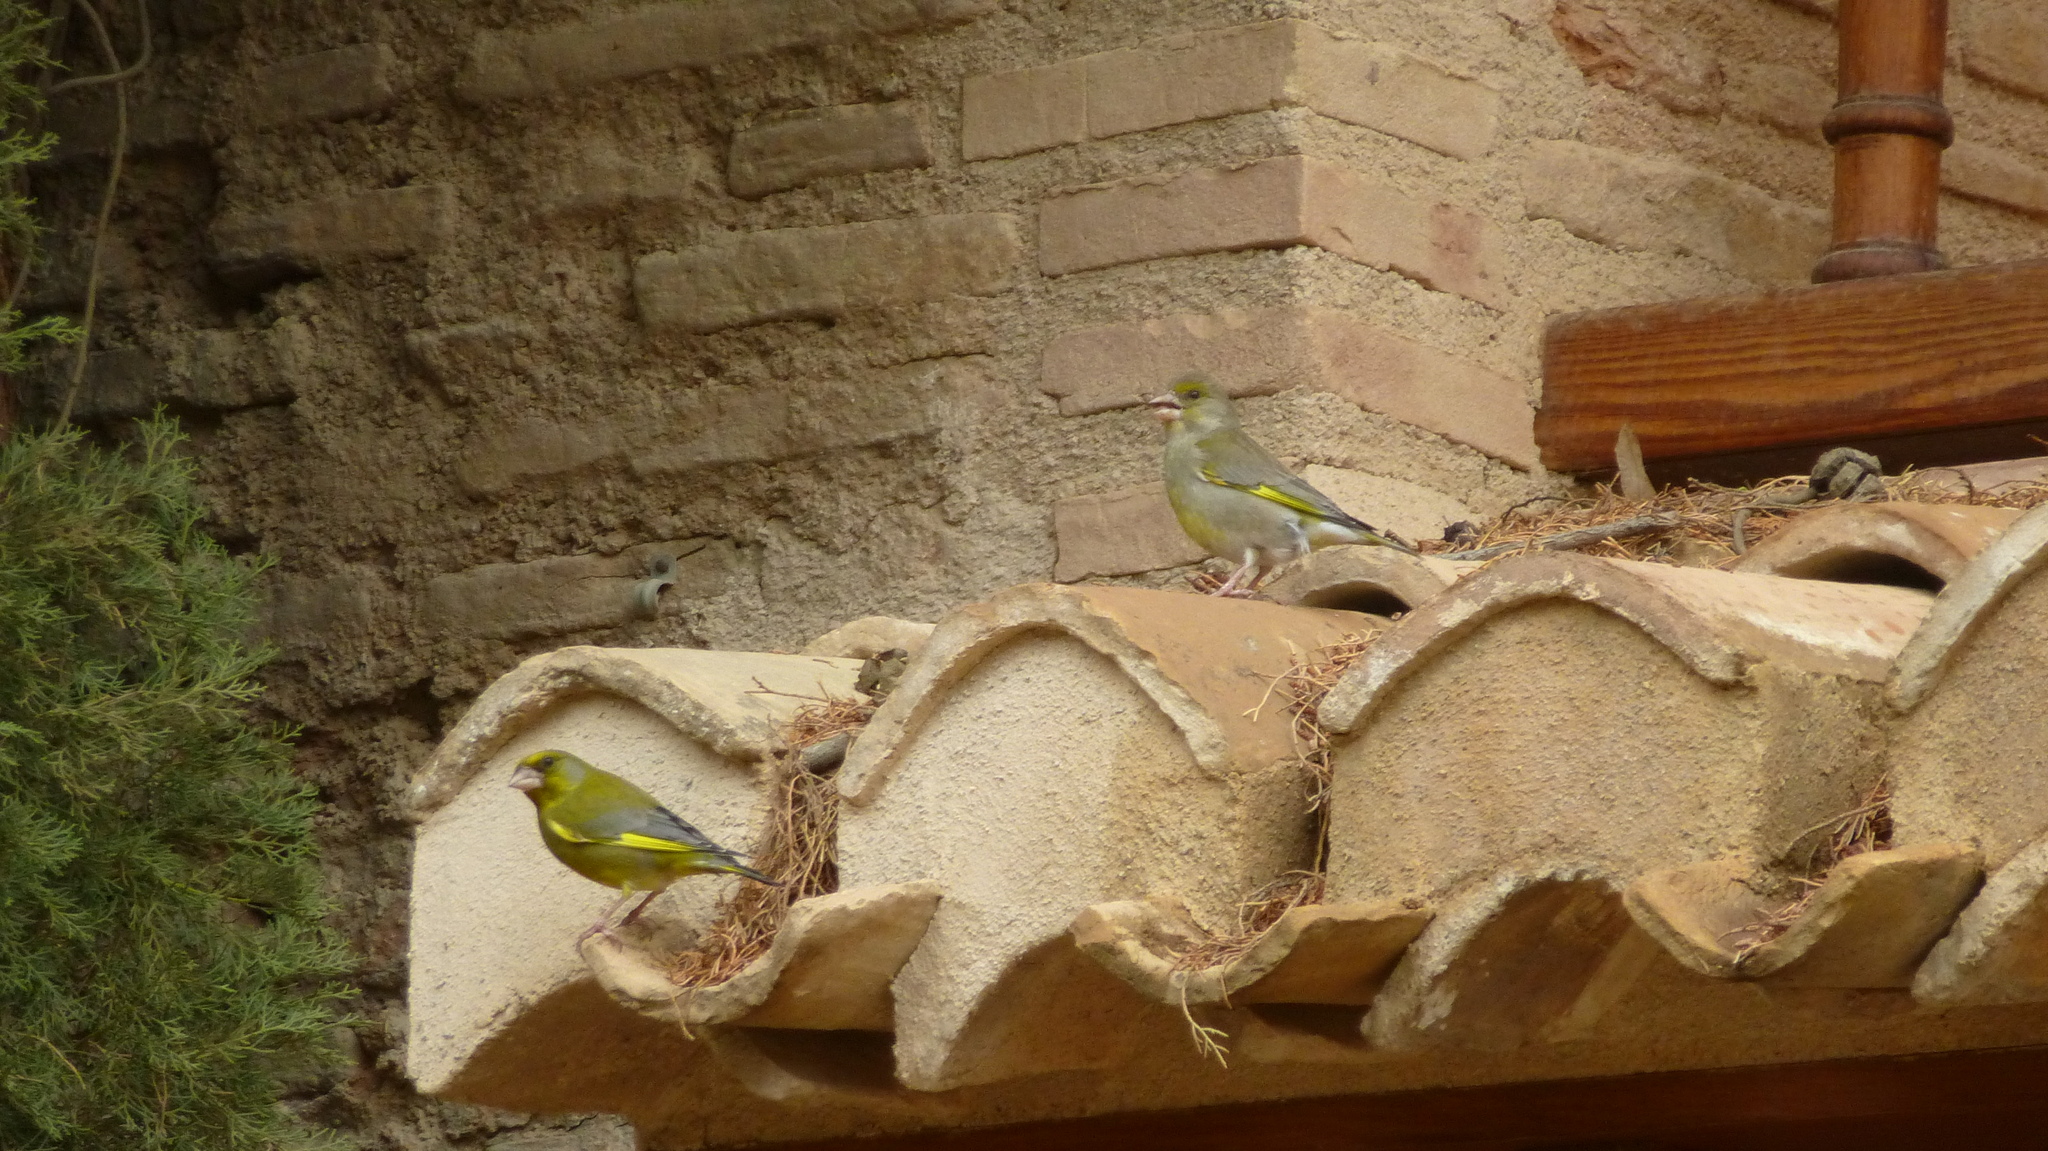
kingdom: Plantae
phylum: Tracheophyta
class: Liliopsida
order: Poales
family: Poaceae
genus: Chloris
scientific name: Chloris chloris
